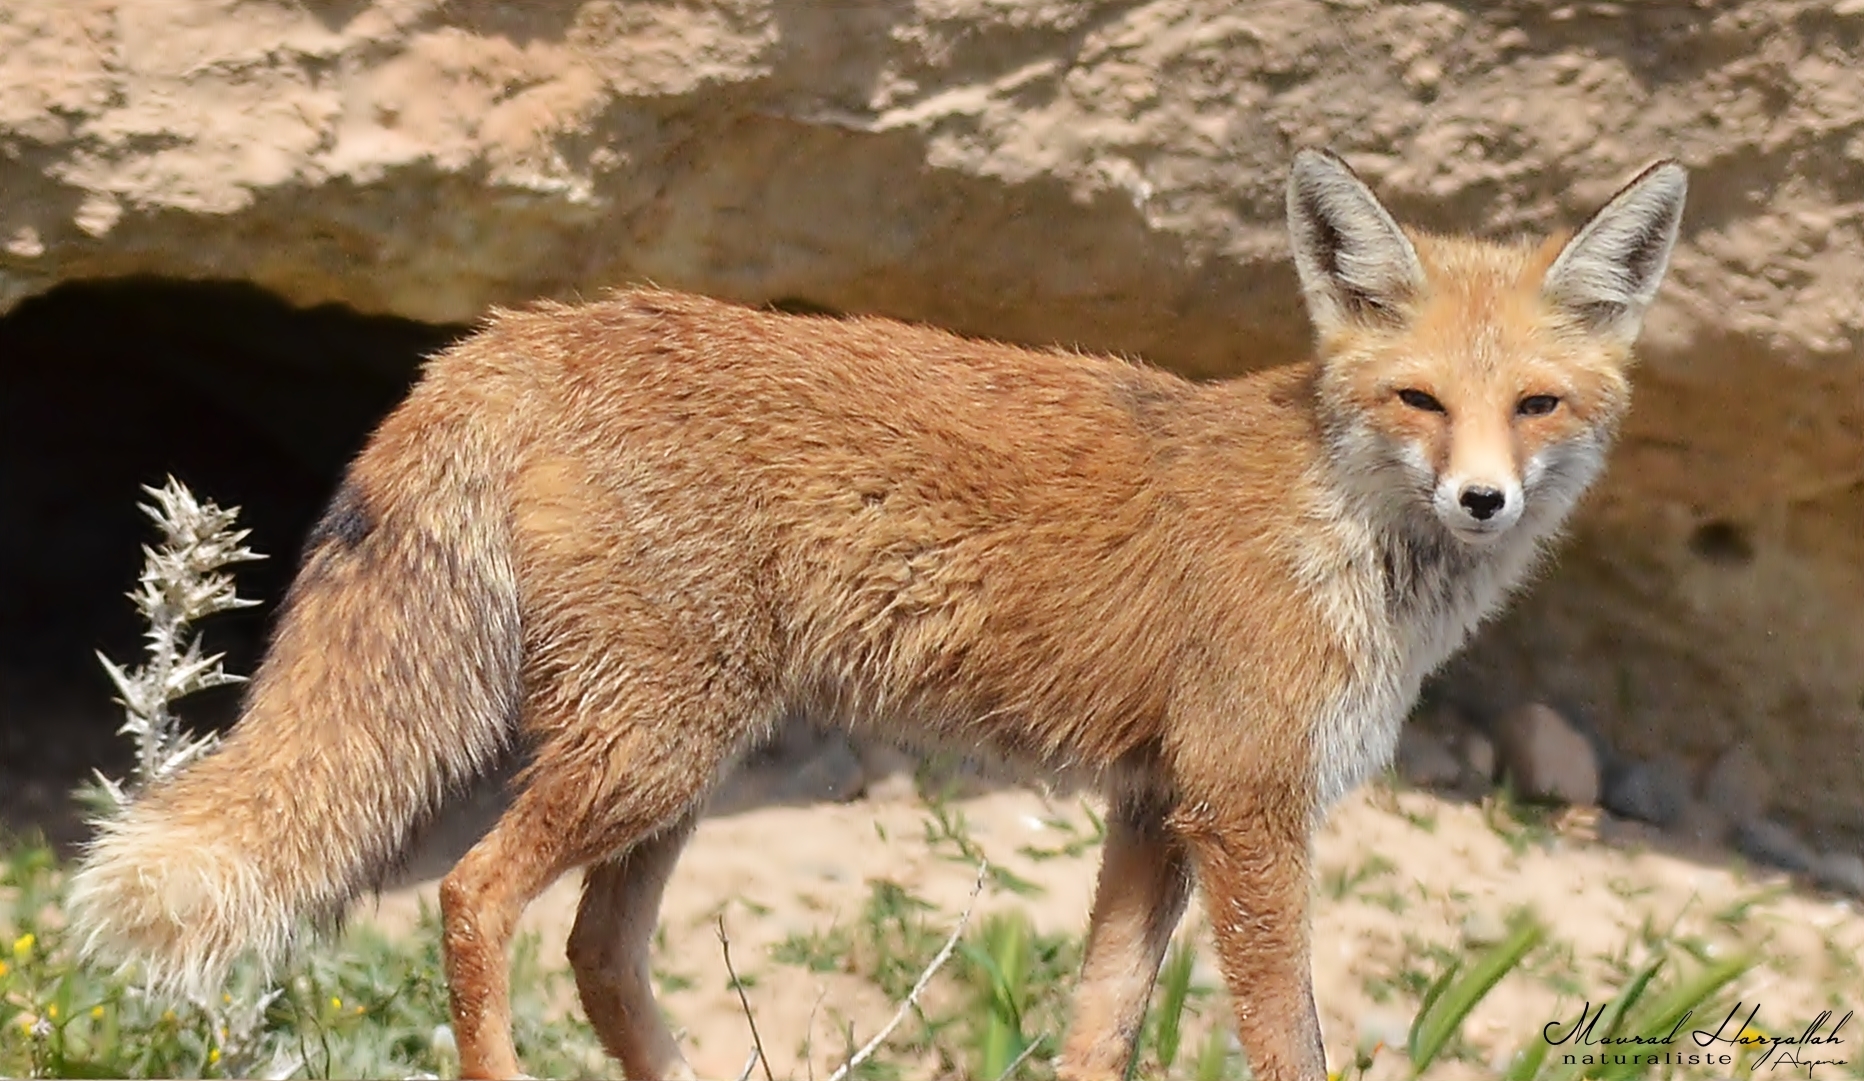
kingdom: Animalia
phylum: Chordata
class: Mammalia
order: Carnivora
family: Canidae
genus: Vulpes
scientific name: Vulpes vulpes
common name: Red fox
